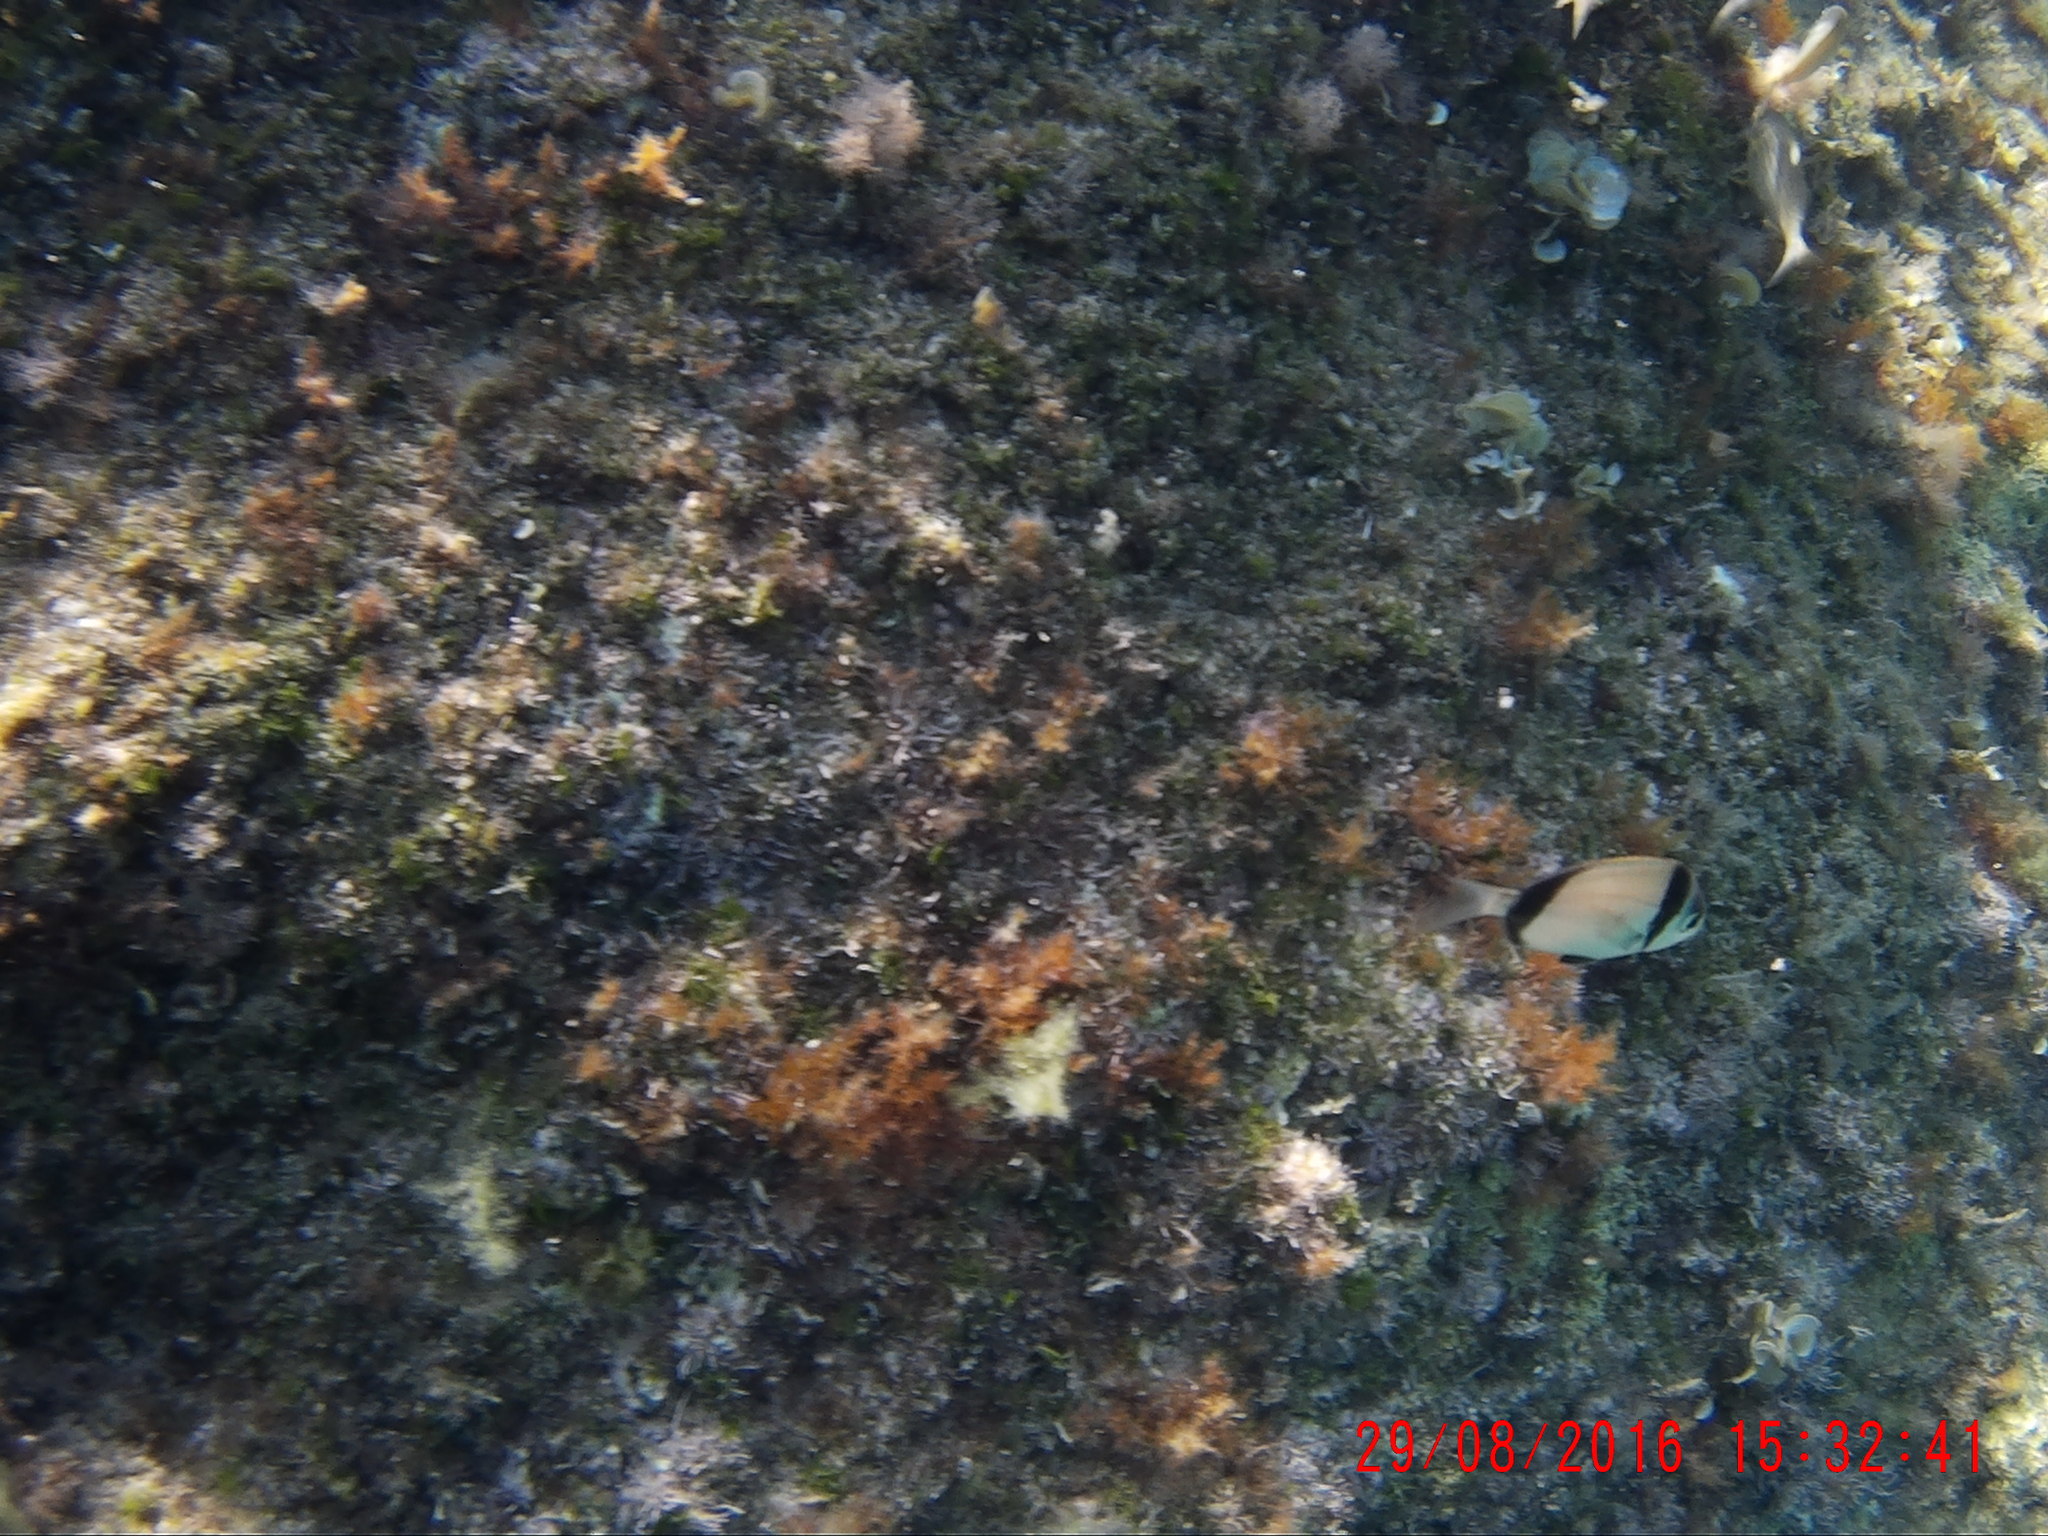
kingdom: Animalia
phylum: Chordata
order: Perciformes
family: Sparidae
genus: Diplodus
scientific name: Diplodus vulgaris
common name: Common two-banded seabream
